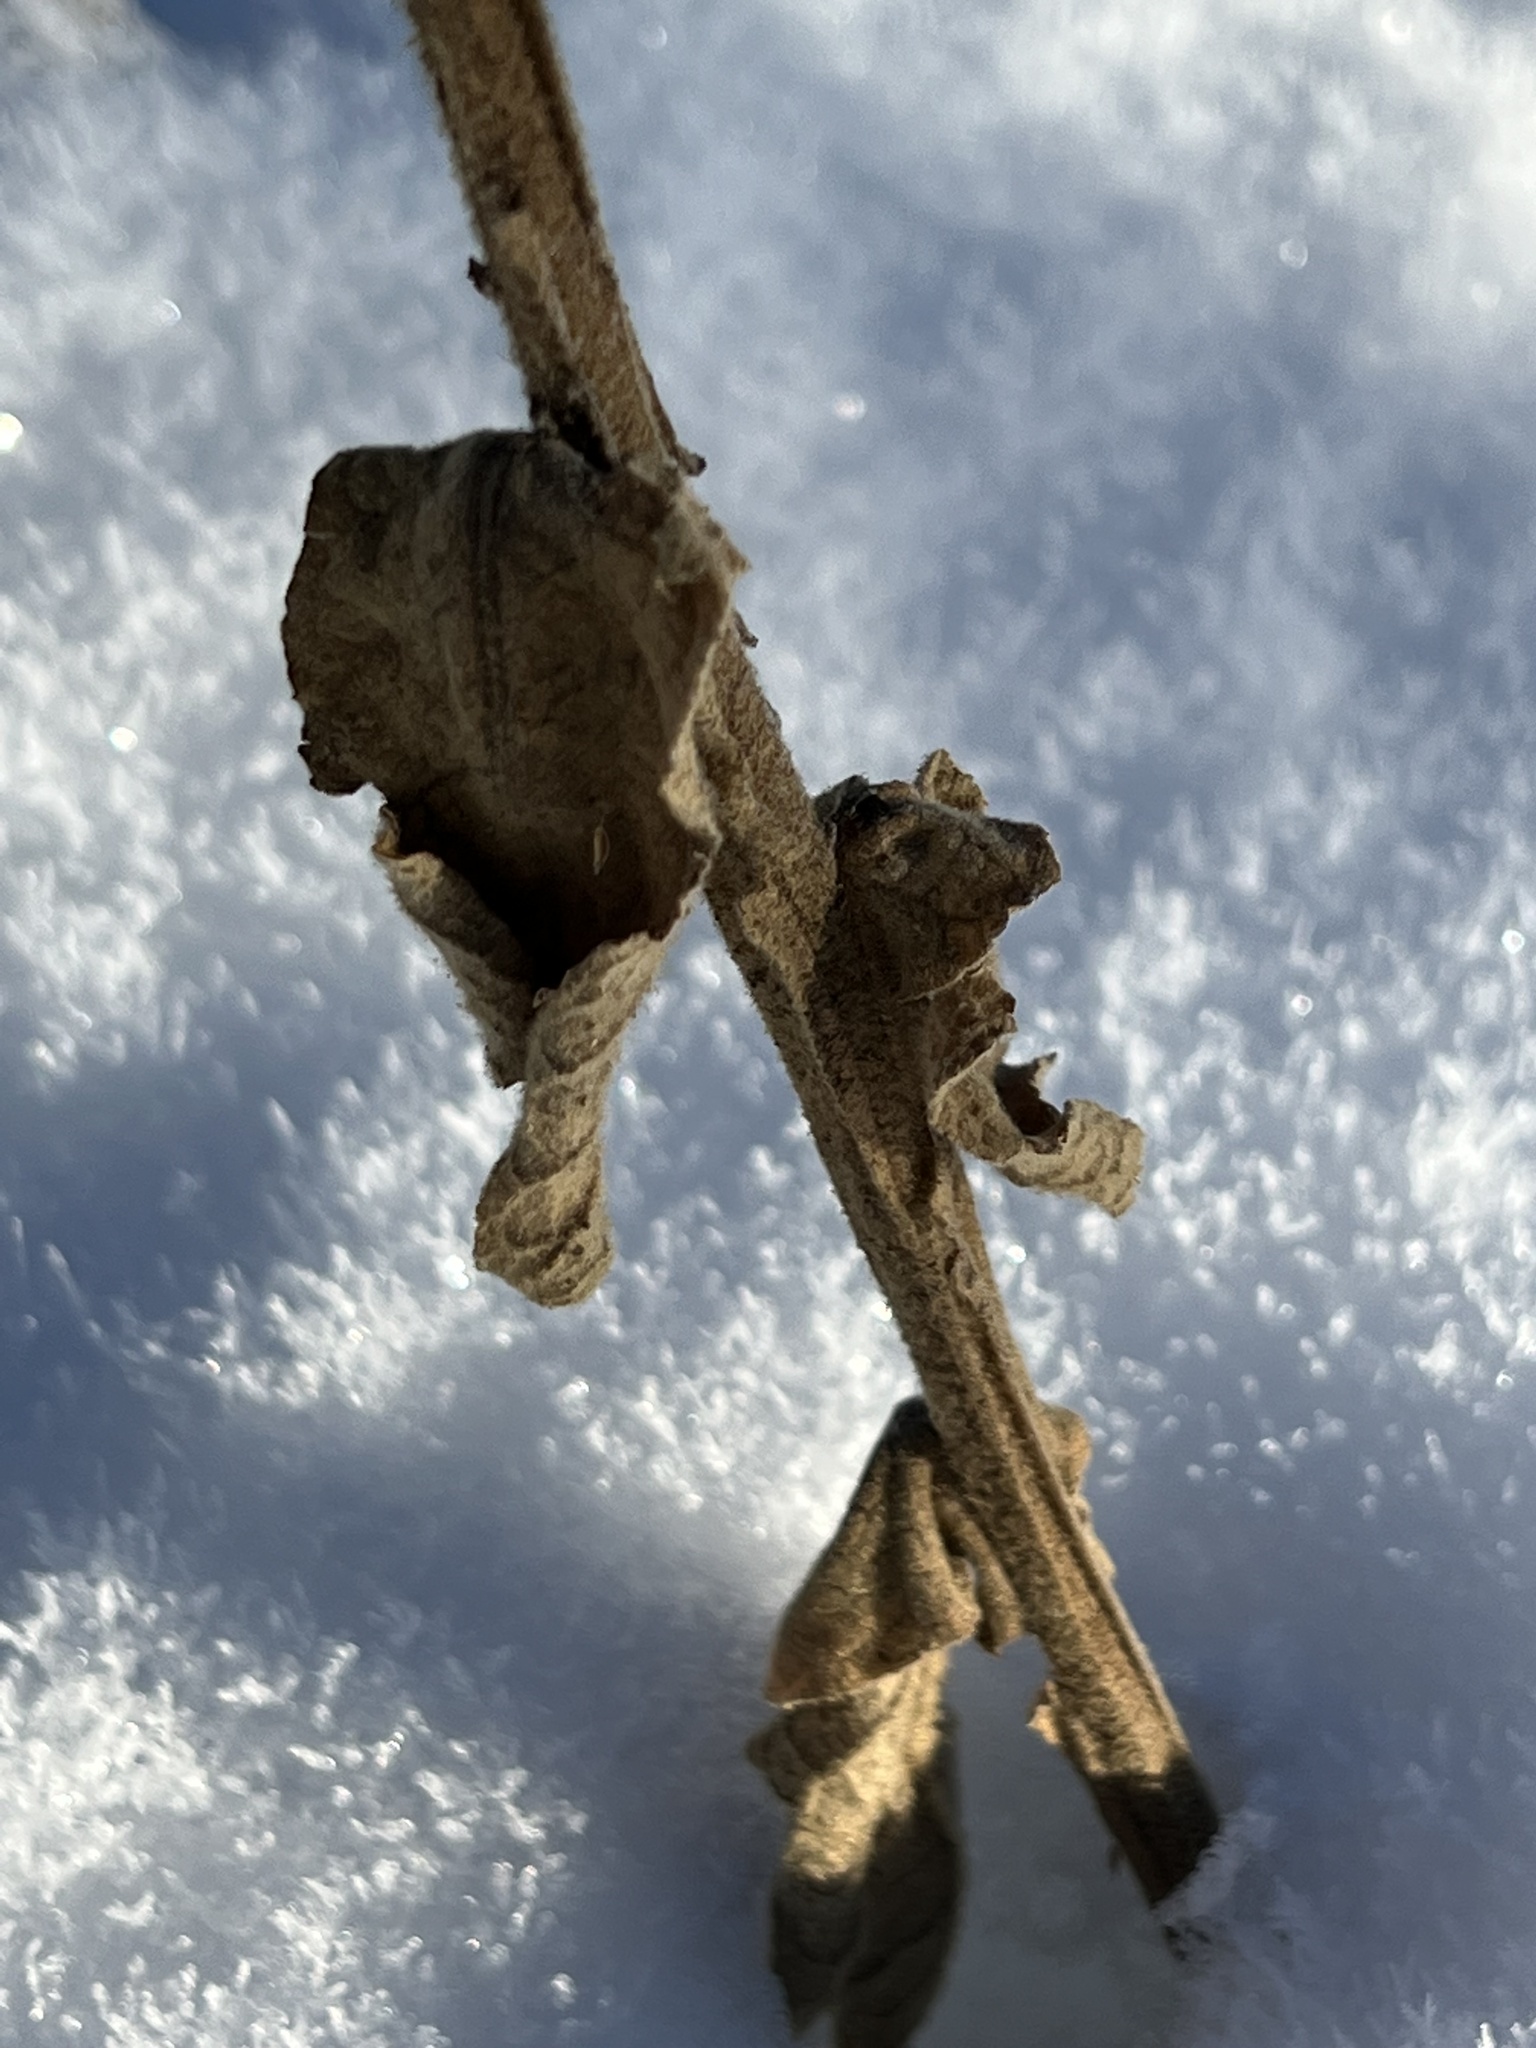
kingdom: Plantae
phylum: Tracheophyta
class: Magnoliopsida
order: Lamiales
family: Scrophulariaceae
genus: Verbascum
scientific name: Verbascum thapsus
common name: Common mullein
